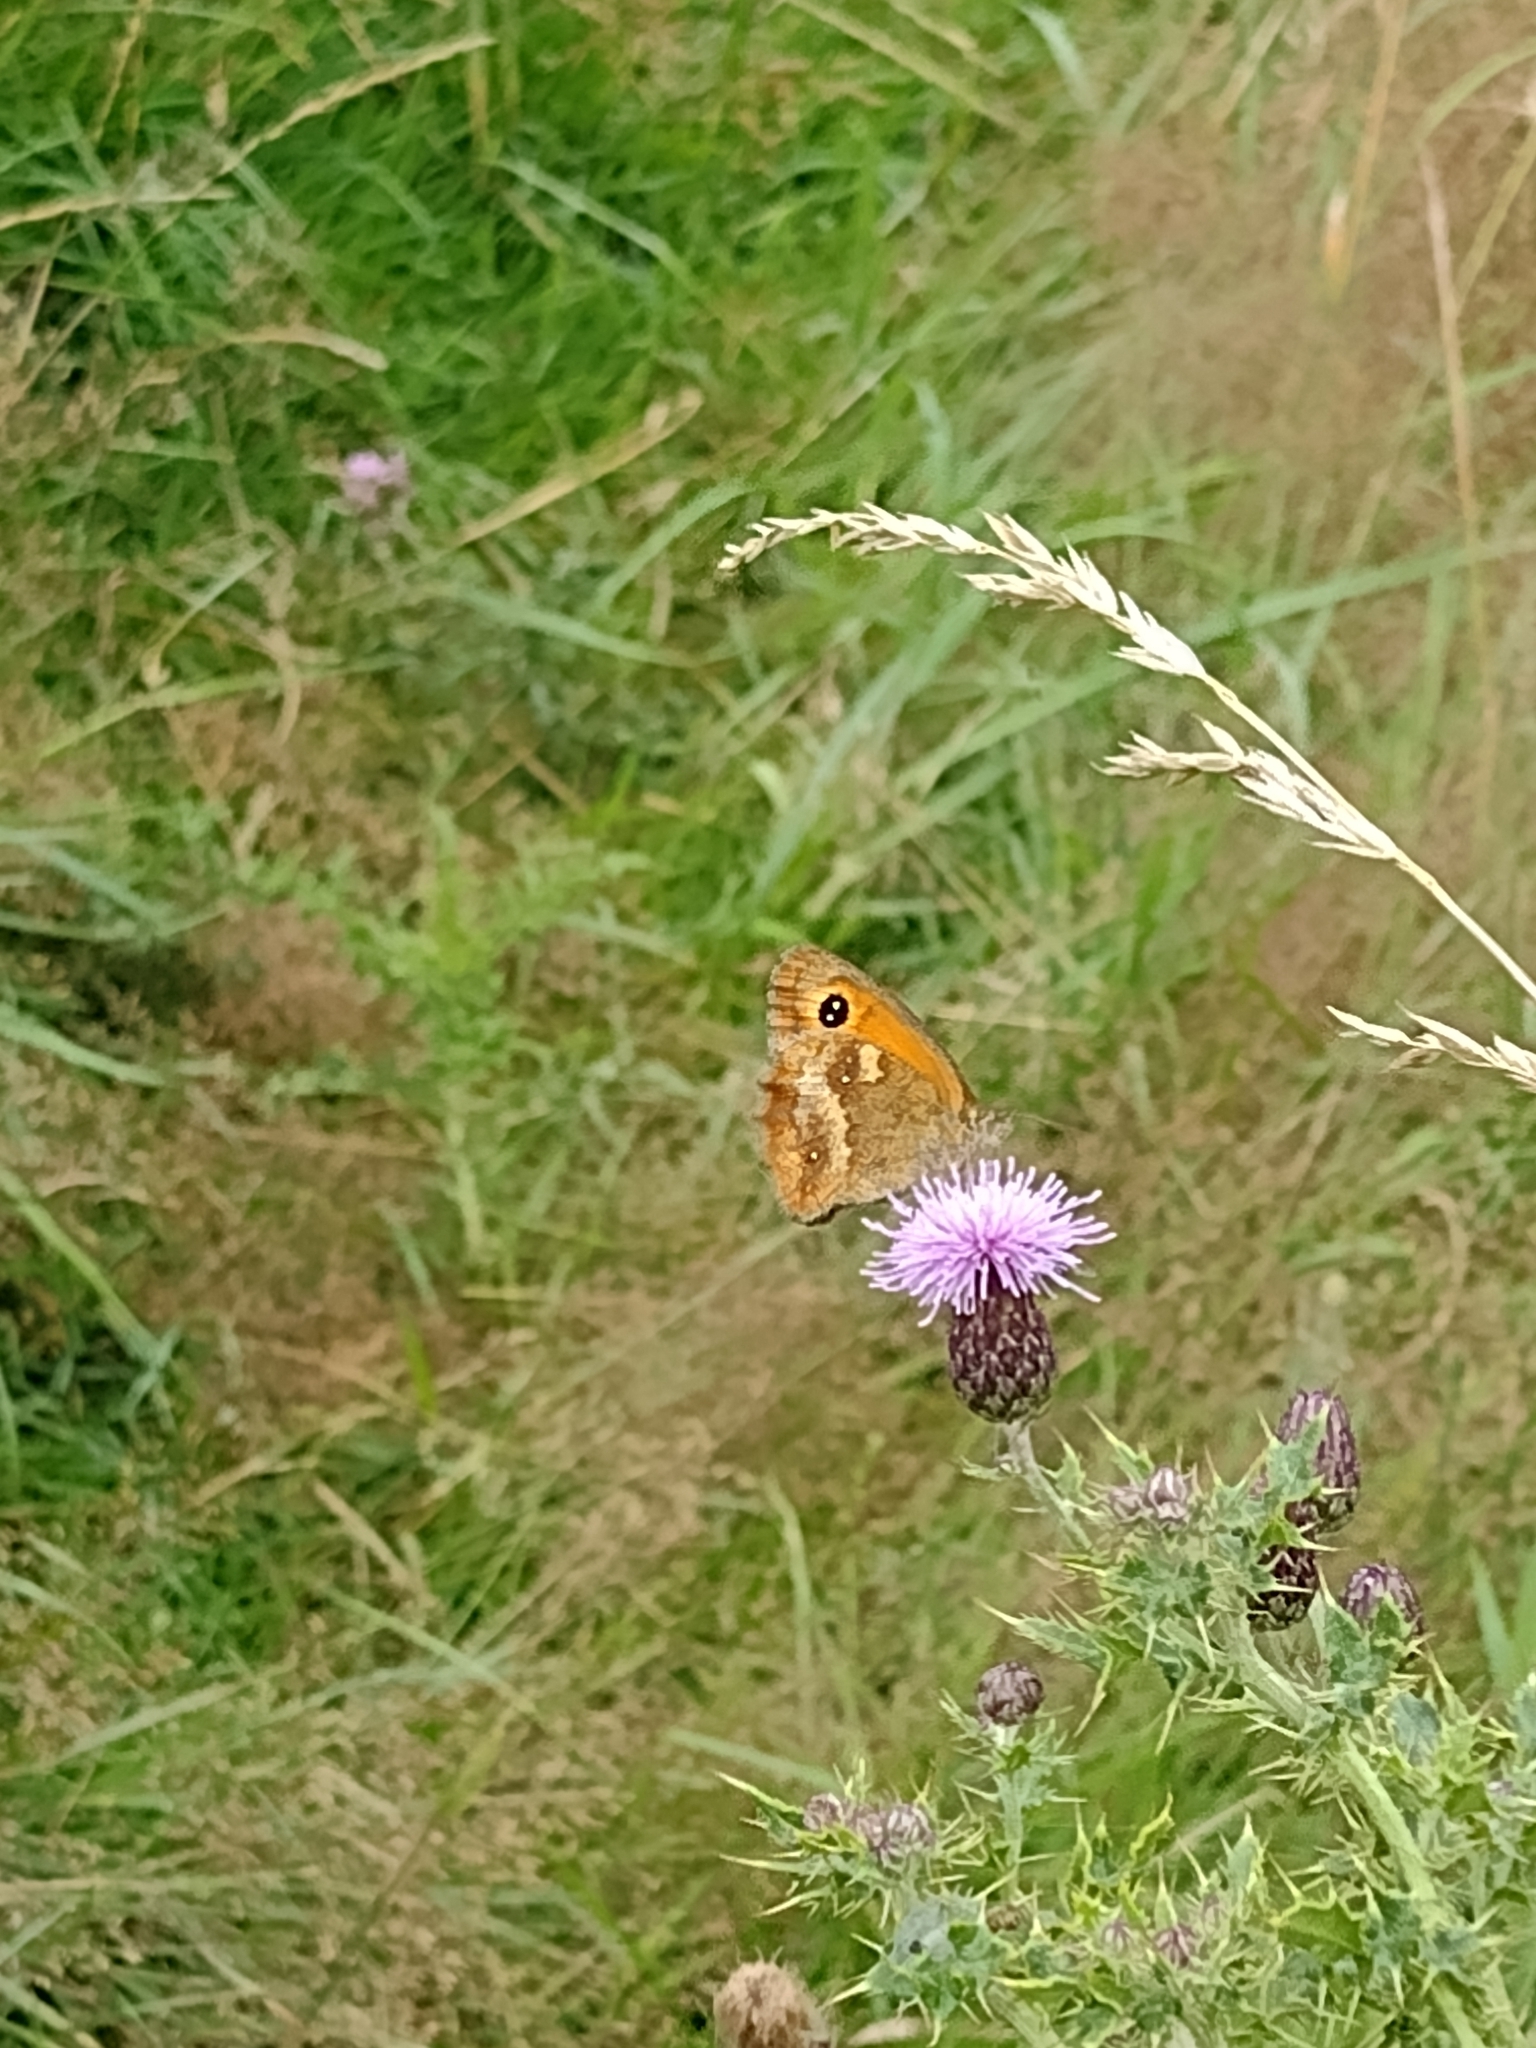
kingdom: Animalia
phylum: Arthropoda
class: Insecta
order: Lepidoptera
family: Nymphalidae
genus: Pyronia
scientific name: Pyronia tithonus
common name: Gatekeeper
